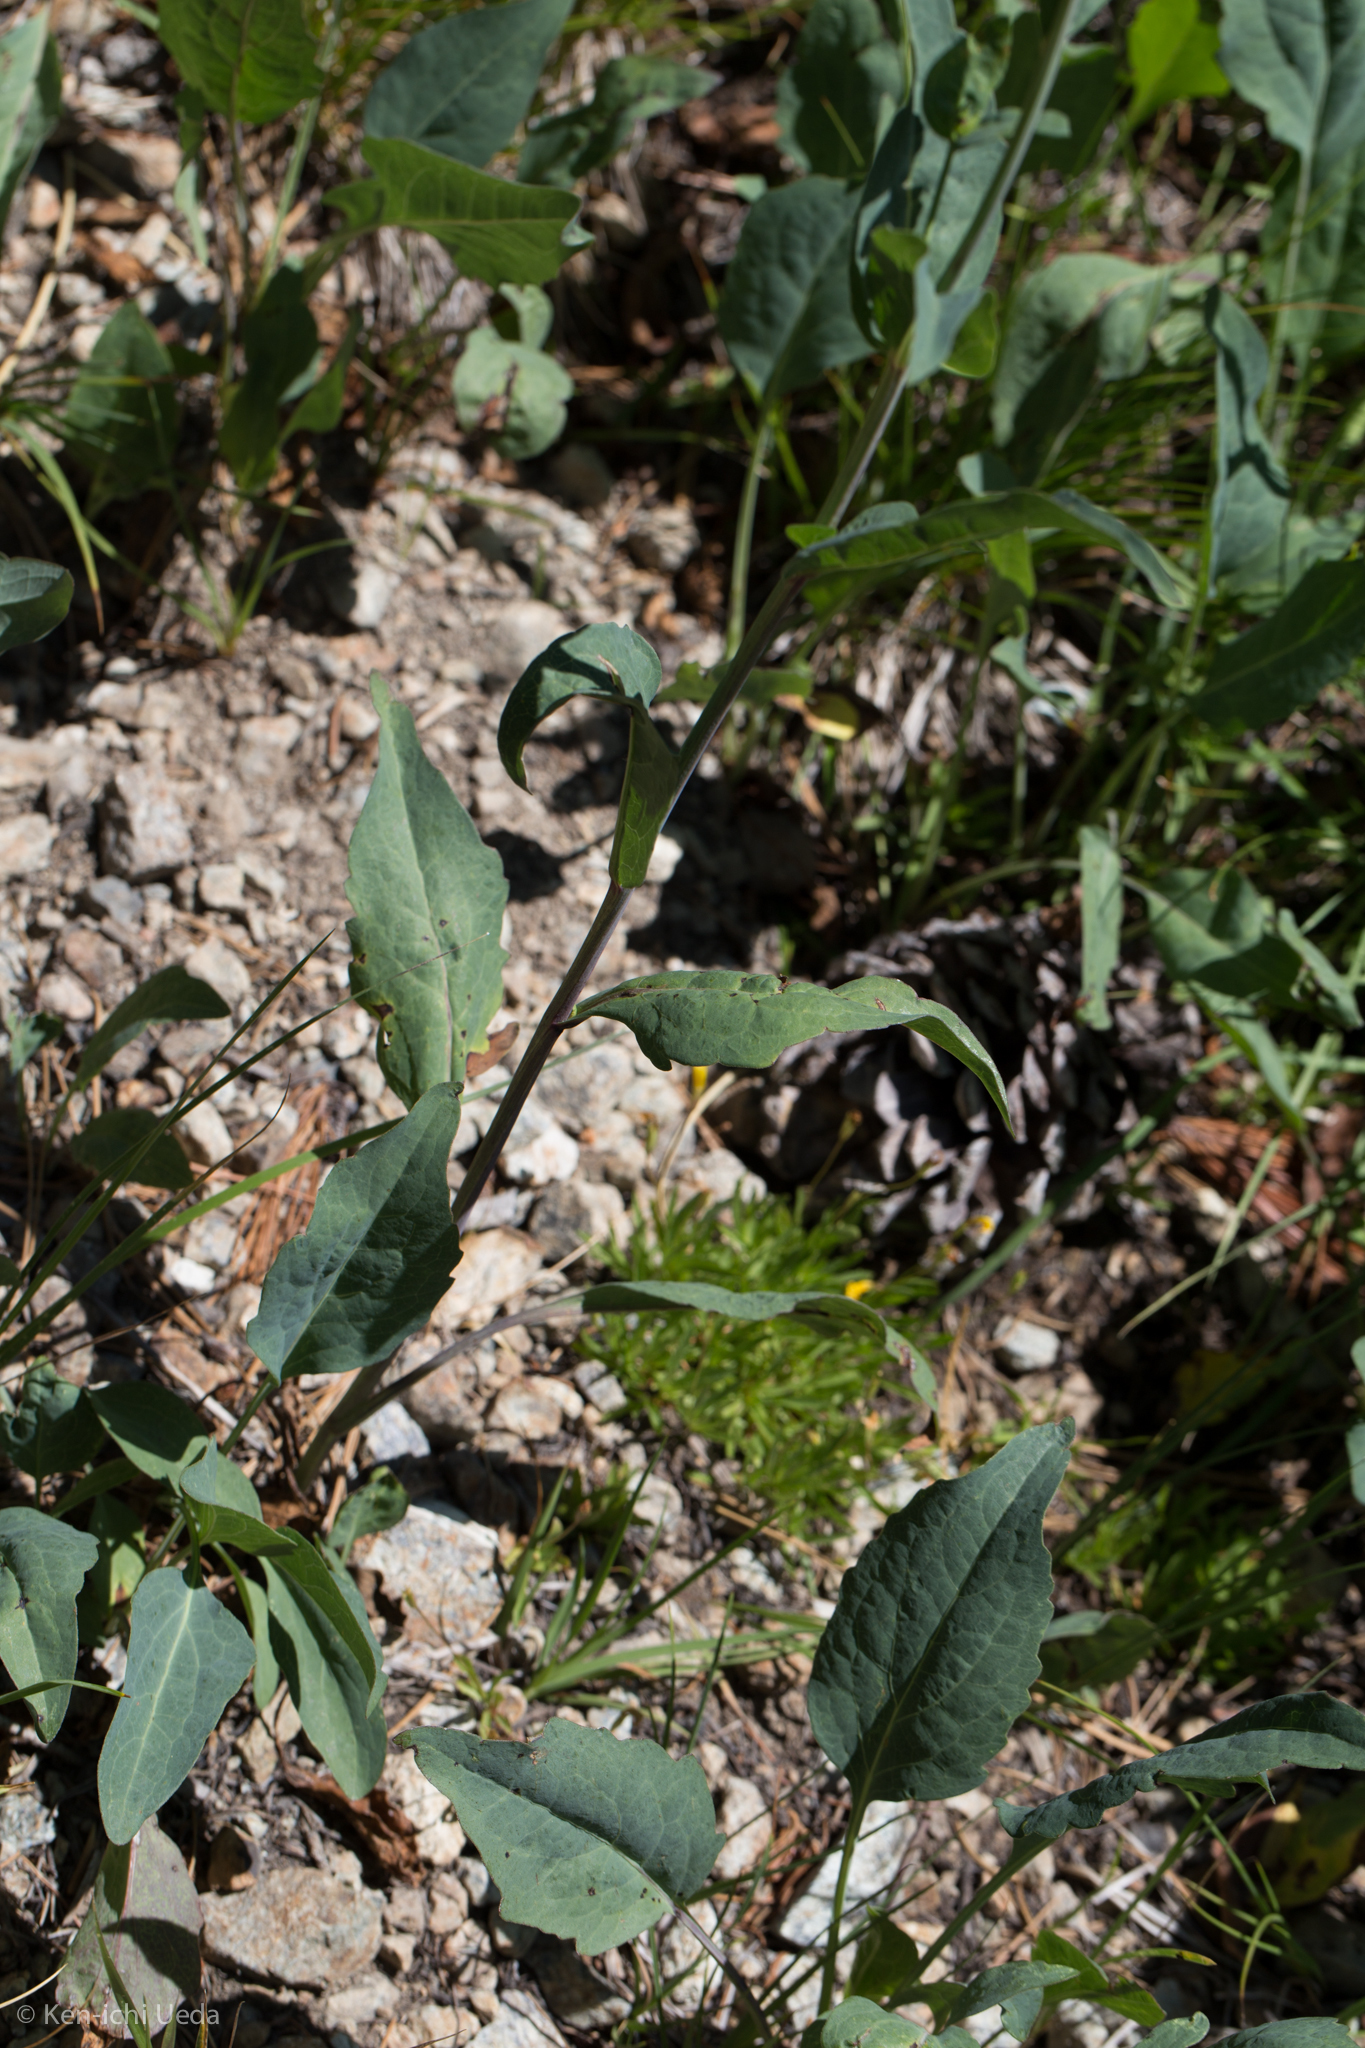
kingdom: Plantae
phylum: Tracheophyta
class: Magnoliopsida
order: Asterales
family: Asteraceae
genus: Rudbeckia
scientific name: Rudbeckia glaucescens
